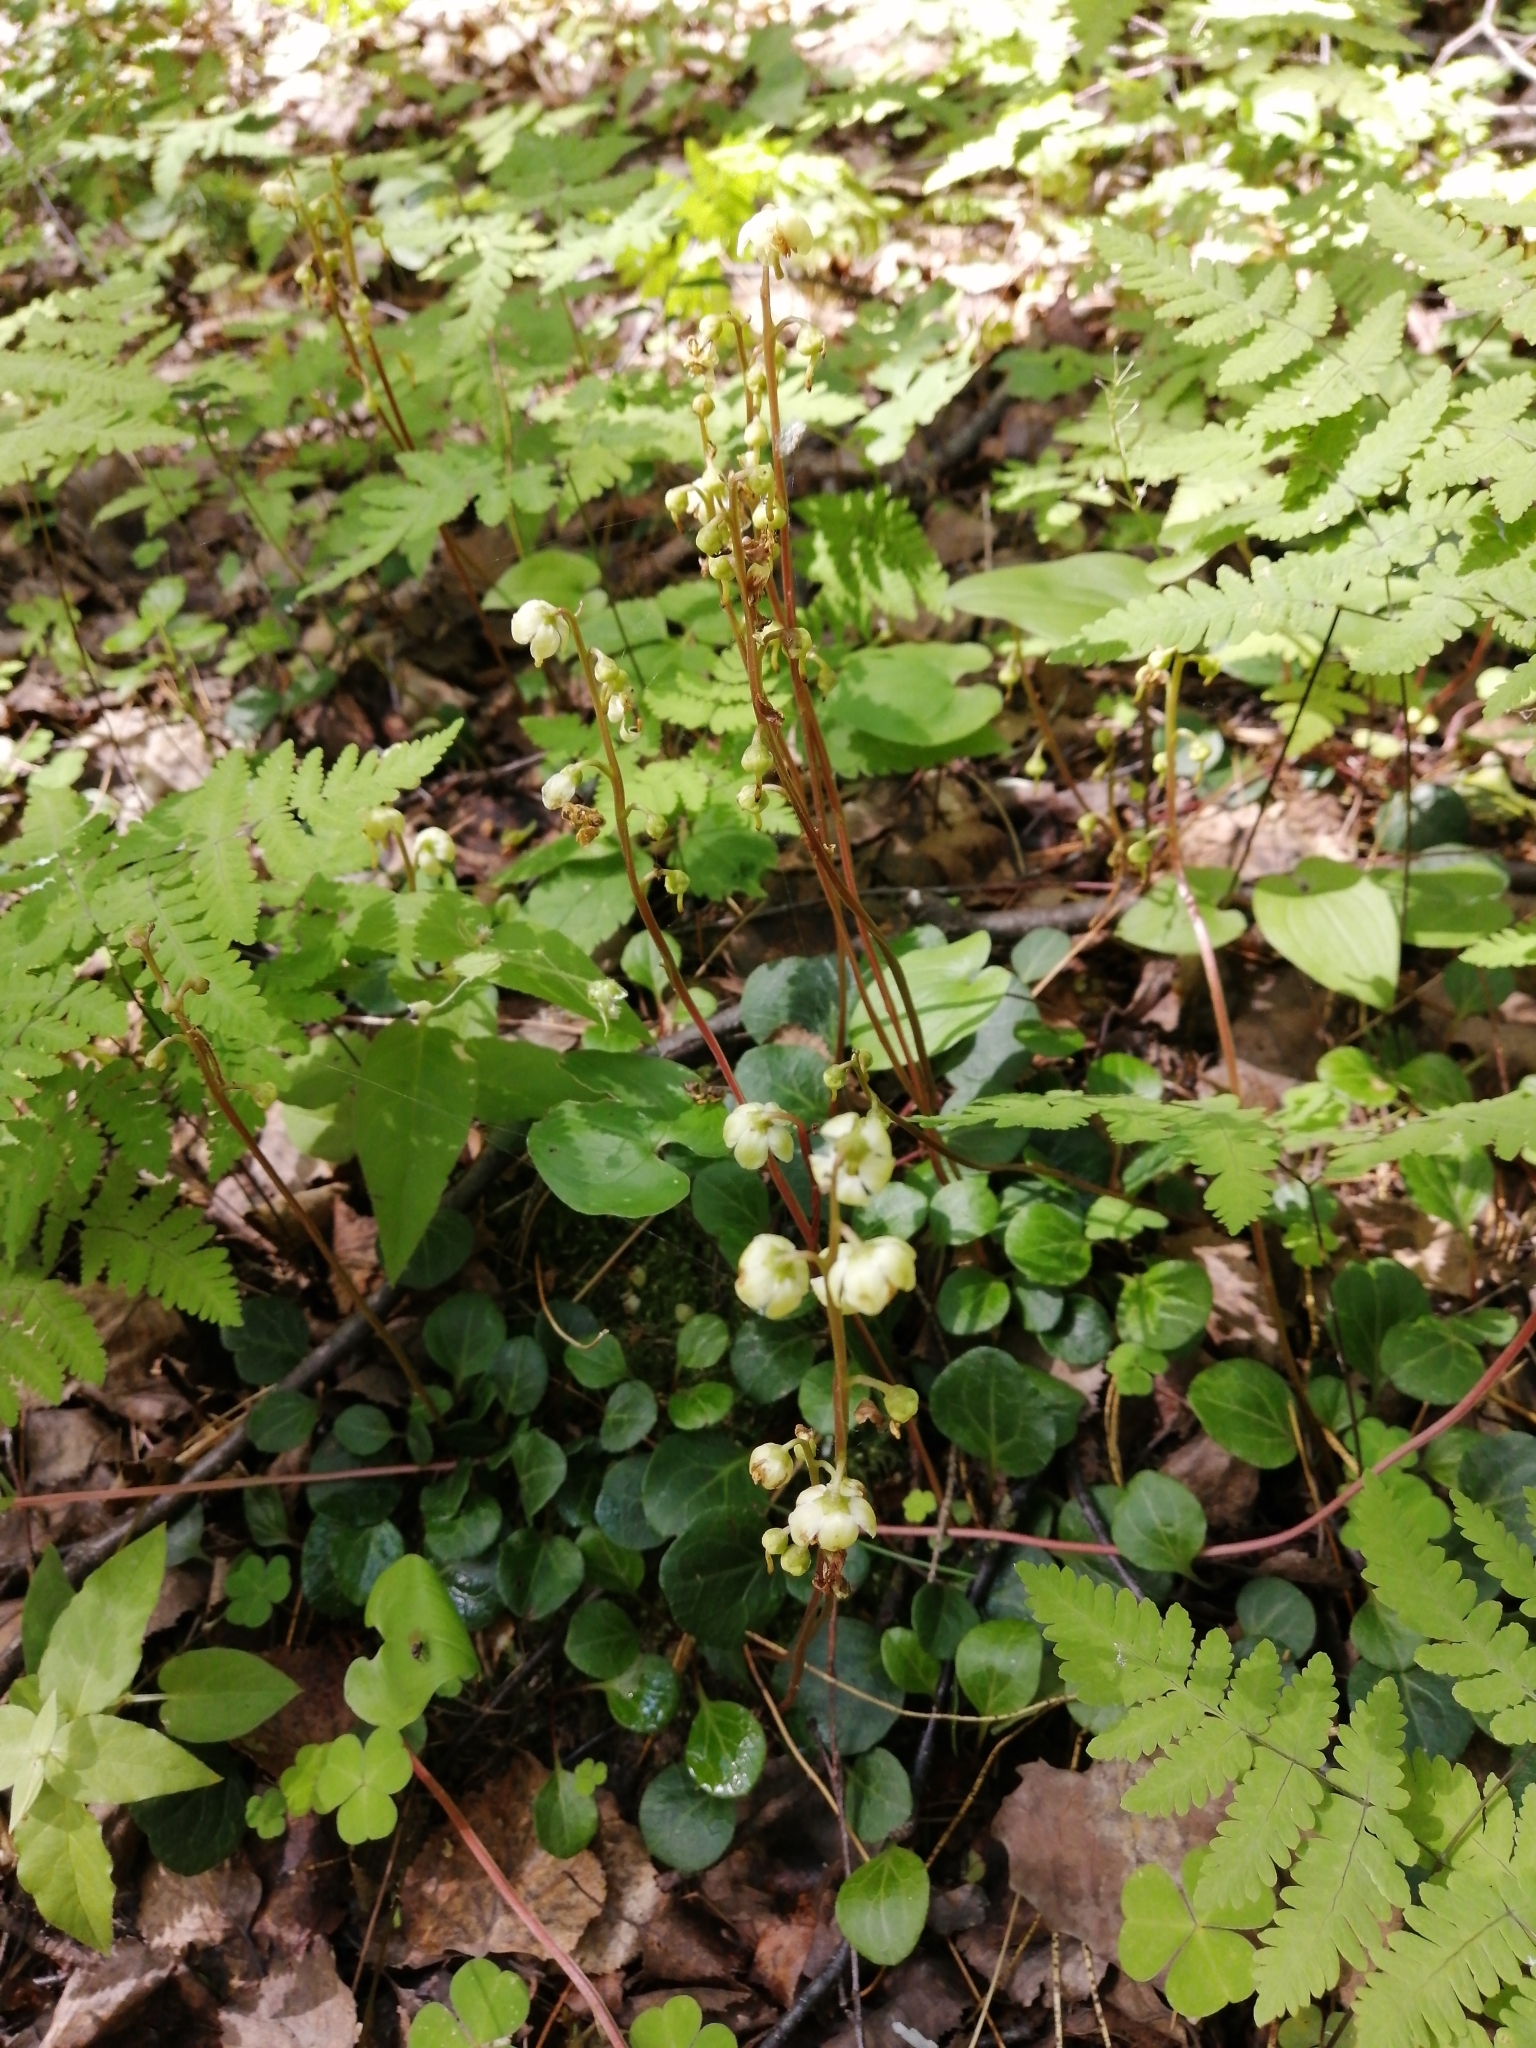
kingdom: Plantae
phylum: Tracheophyta
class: Magnoliopsida
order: Ericales
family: Ericaceae
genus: Pyrola
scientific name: Pyrola chlorantha
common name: Green wintergreen
